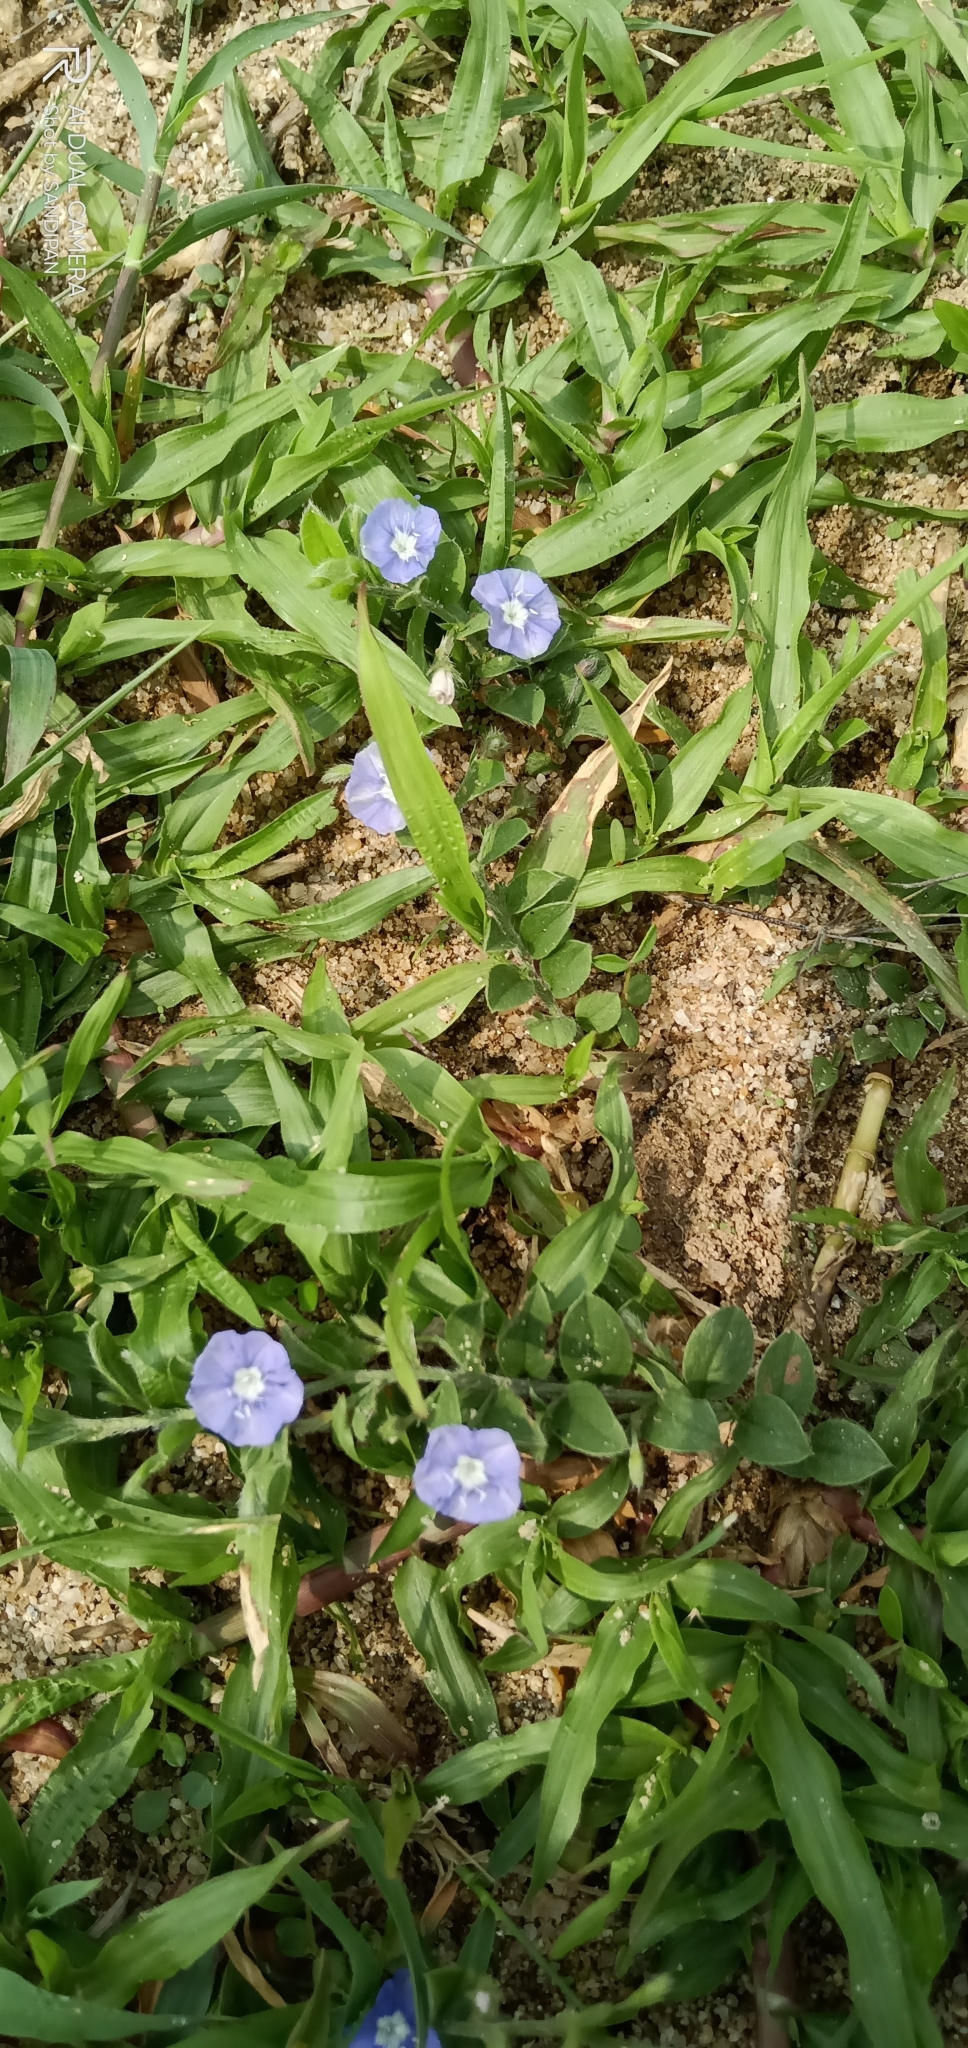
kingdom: Plantae
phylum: Tracheophyta
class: Magnoliopsida
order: Solanales
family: Convolvulaceae
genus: Evolvulus
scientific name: Evolvulus alsinoides
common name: Slender dwarf morning-glory
